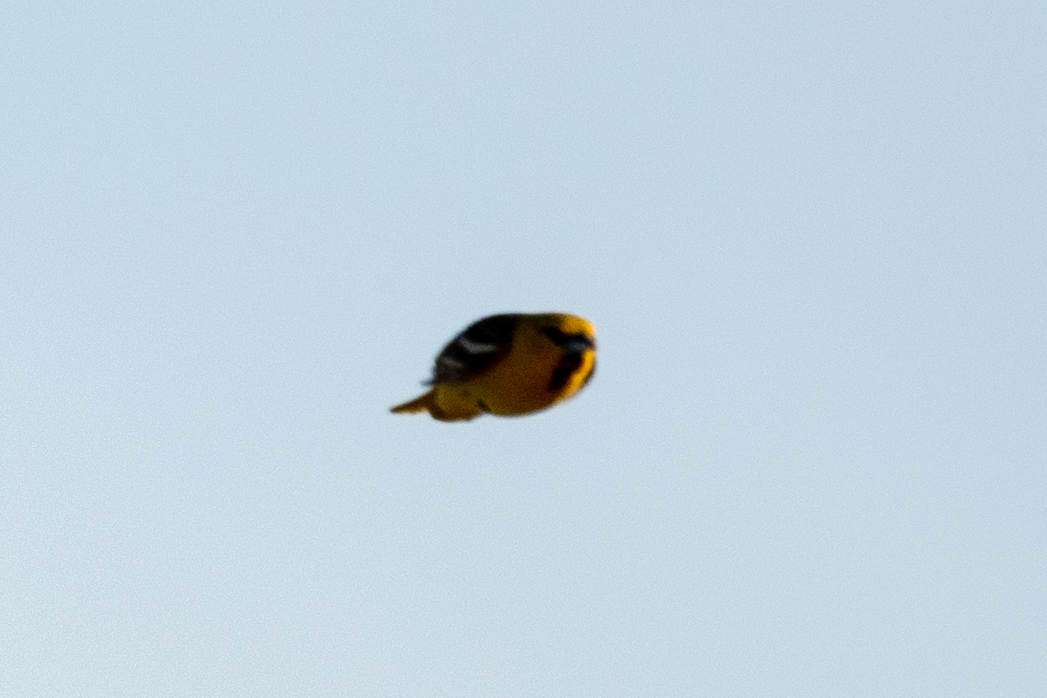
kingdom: Animalia
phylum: Chordata
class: Aves
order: Passeriformes
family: Icteridae
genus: Icterus
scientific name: Icterus bullockii
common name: Bullock's oriole
